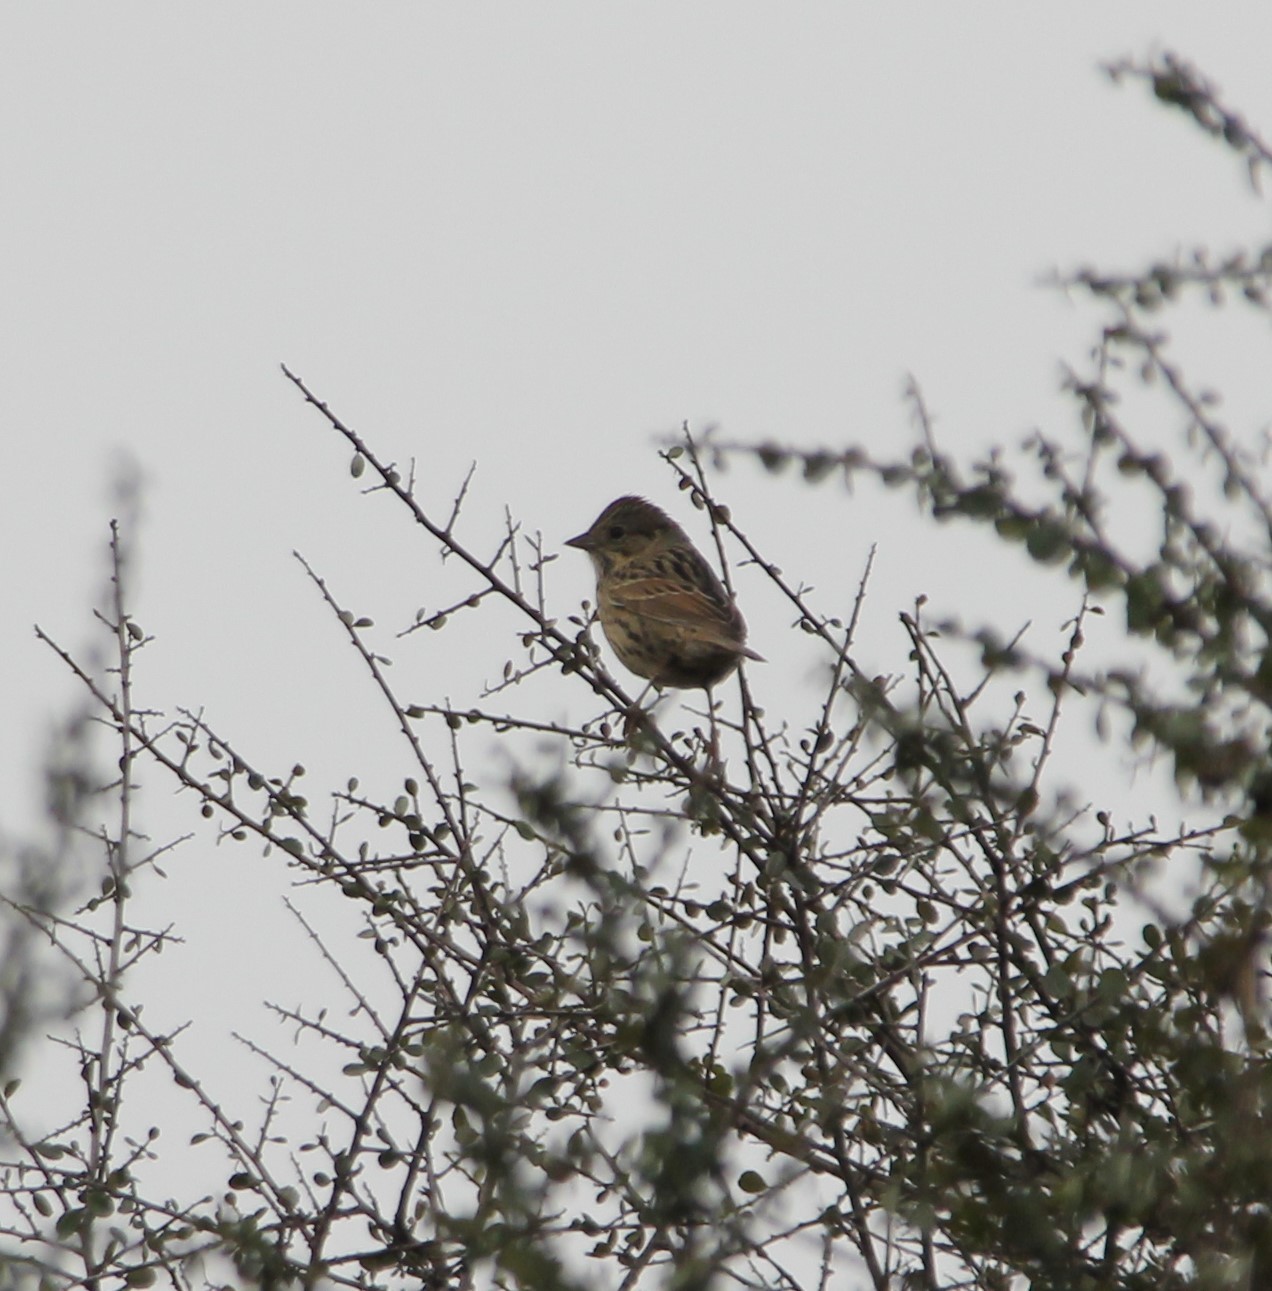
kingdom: Animalia
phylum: Chordata
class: Aves
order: Passeriformes
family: Passerellidae
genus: Melospiza
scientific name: Melospiza lincolnii
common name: Lincoln's sparrow
